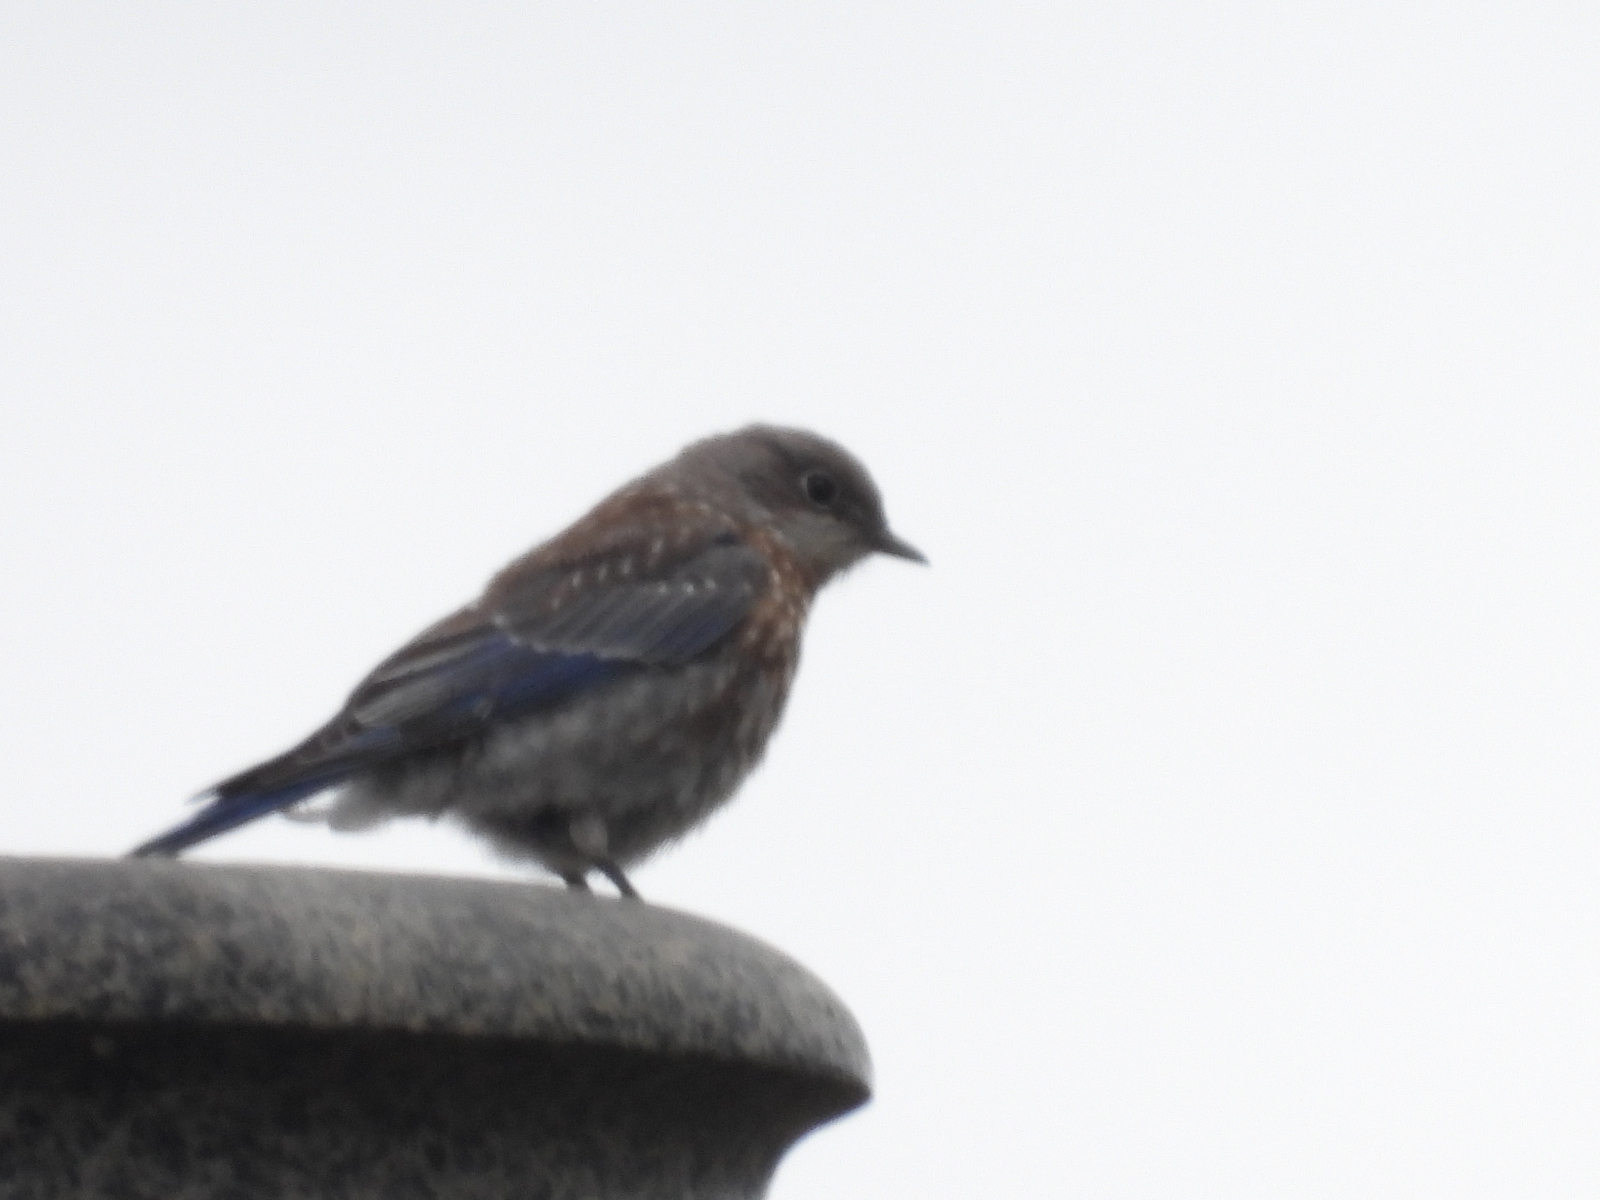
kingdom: Animalia
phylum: Chordata
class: Aves
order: Passeriformes
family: Turdidae
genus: Sialia
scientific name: Sialia mexicana
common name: Western bluebird
